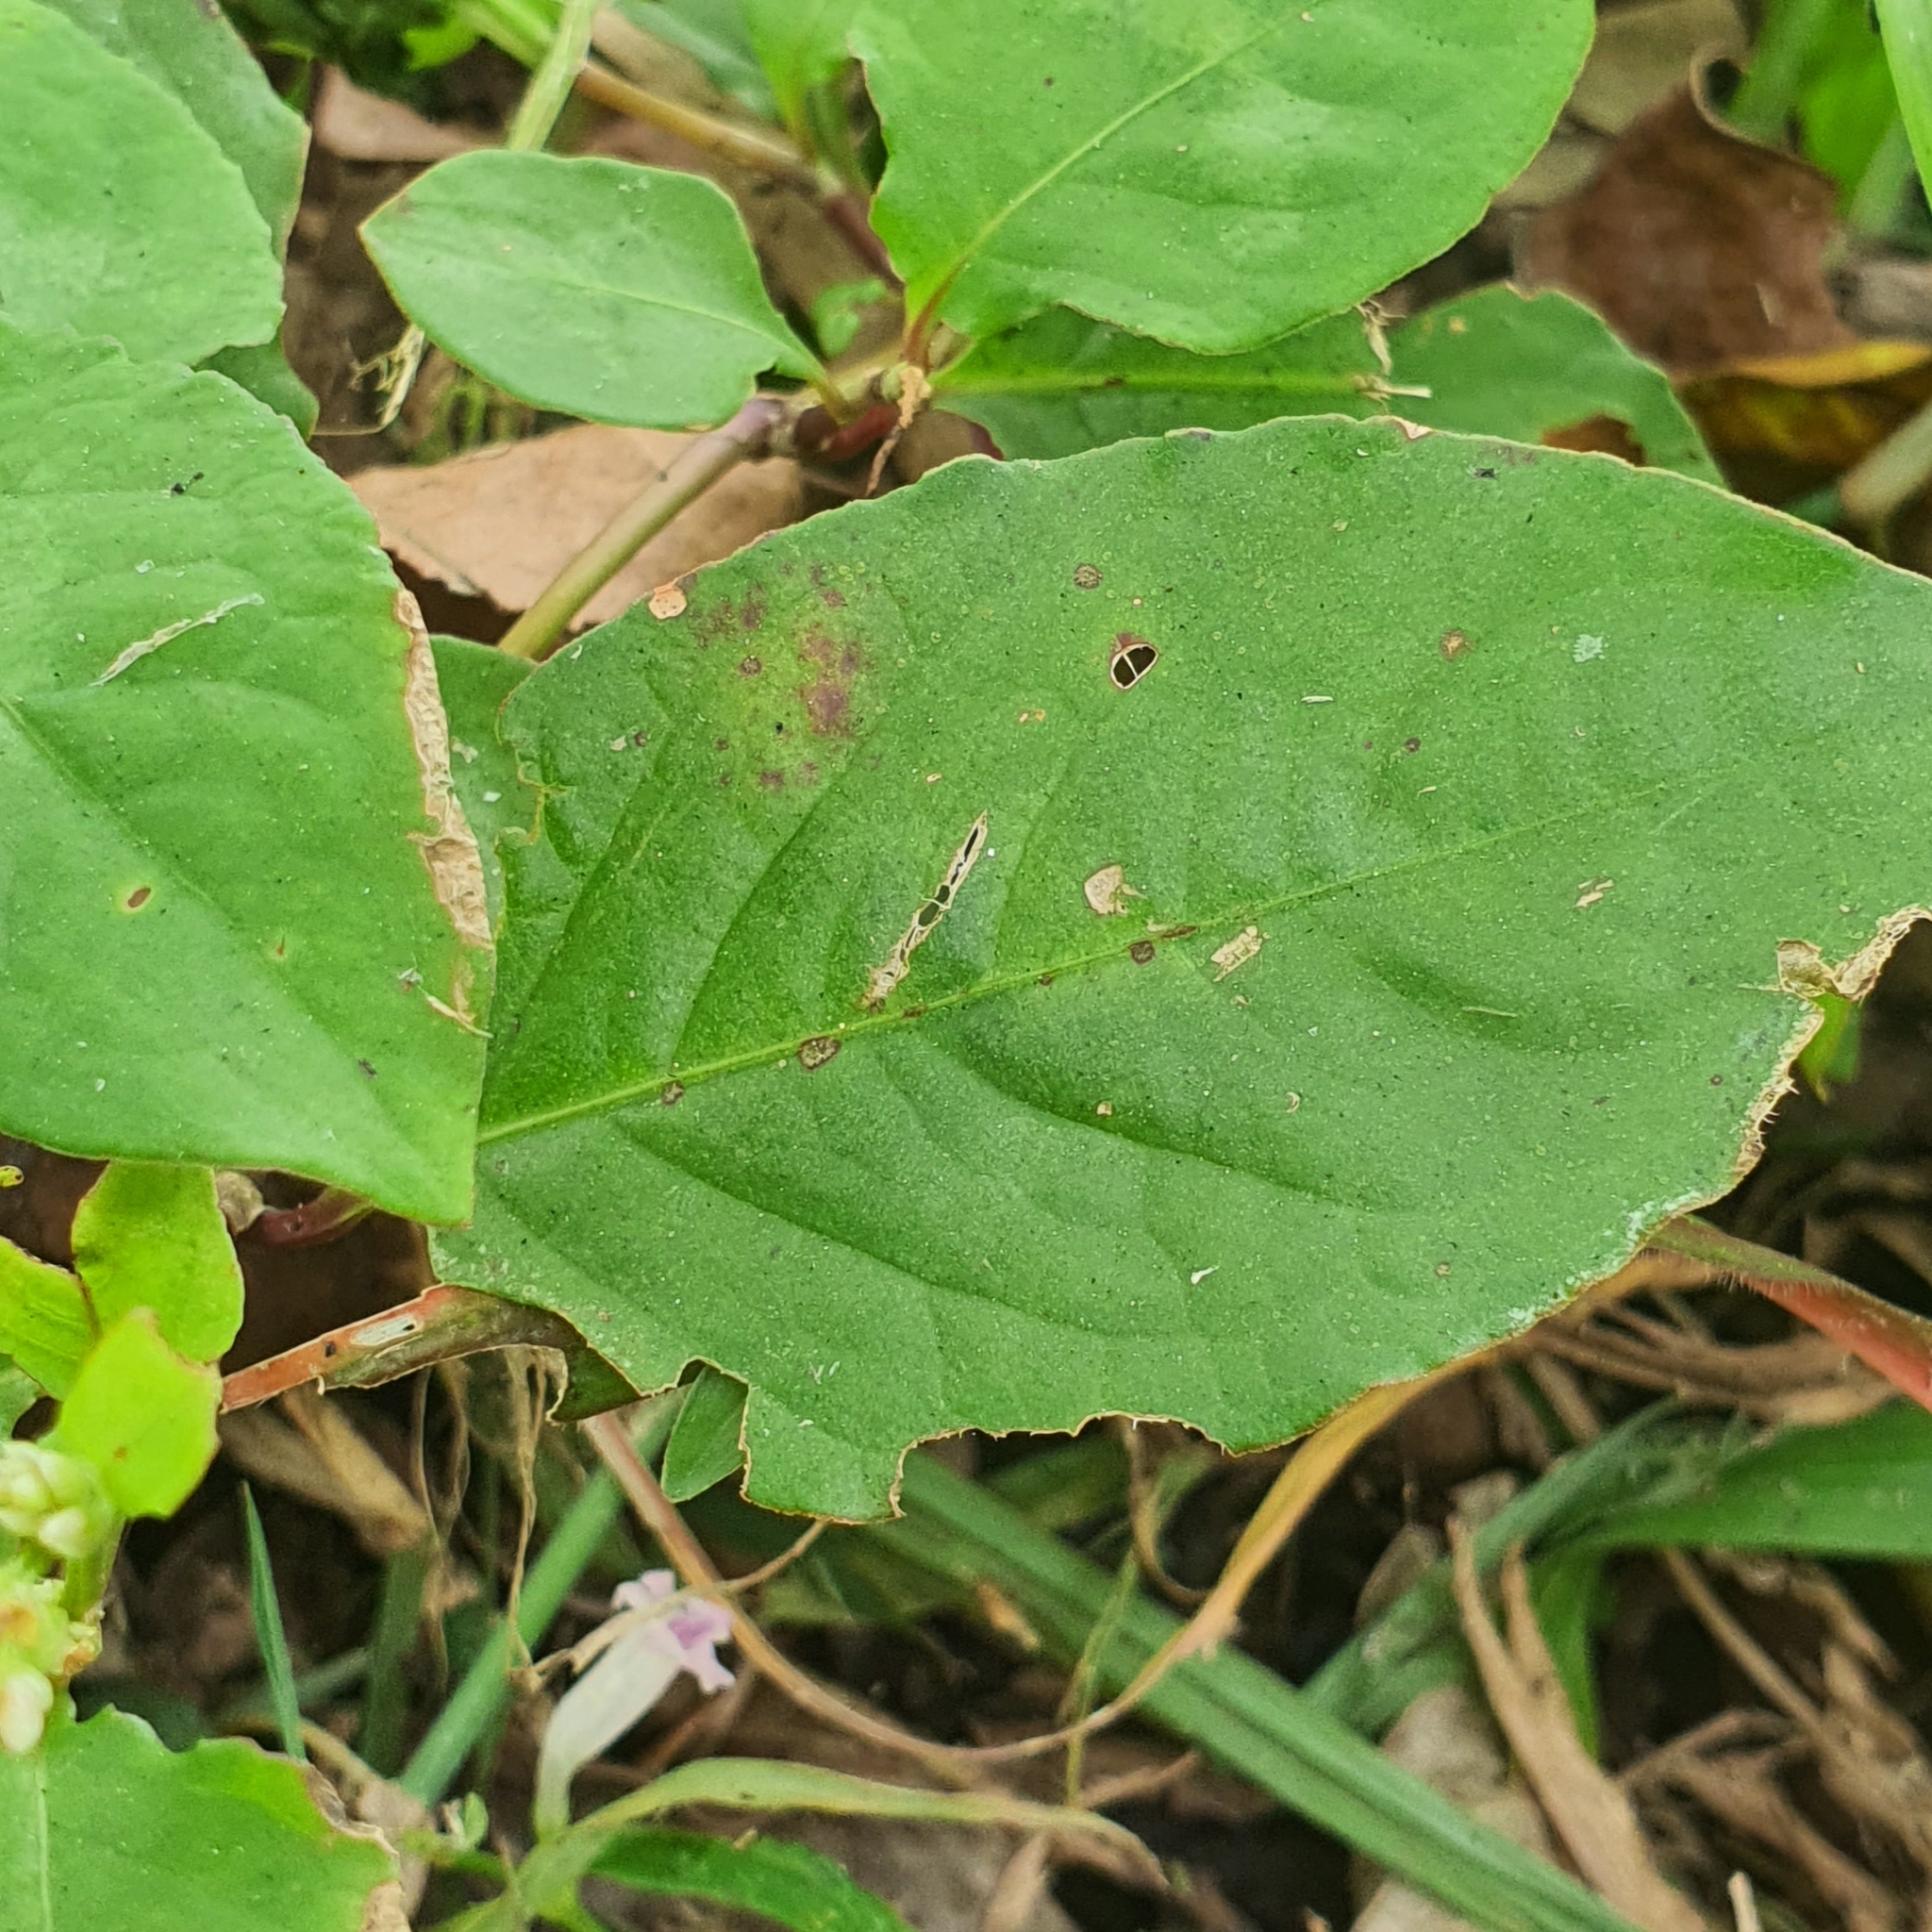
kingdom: Plantae
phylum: Tracheophyta
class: Magnoliopsida
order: Caryophyllales
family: Polygonaceae
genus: Persicaria
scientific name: Persicaria chinensis
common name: Chinese knotweed
